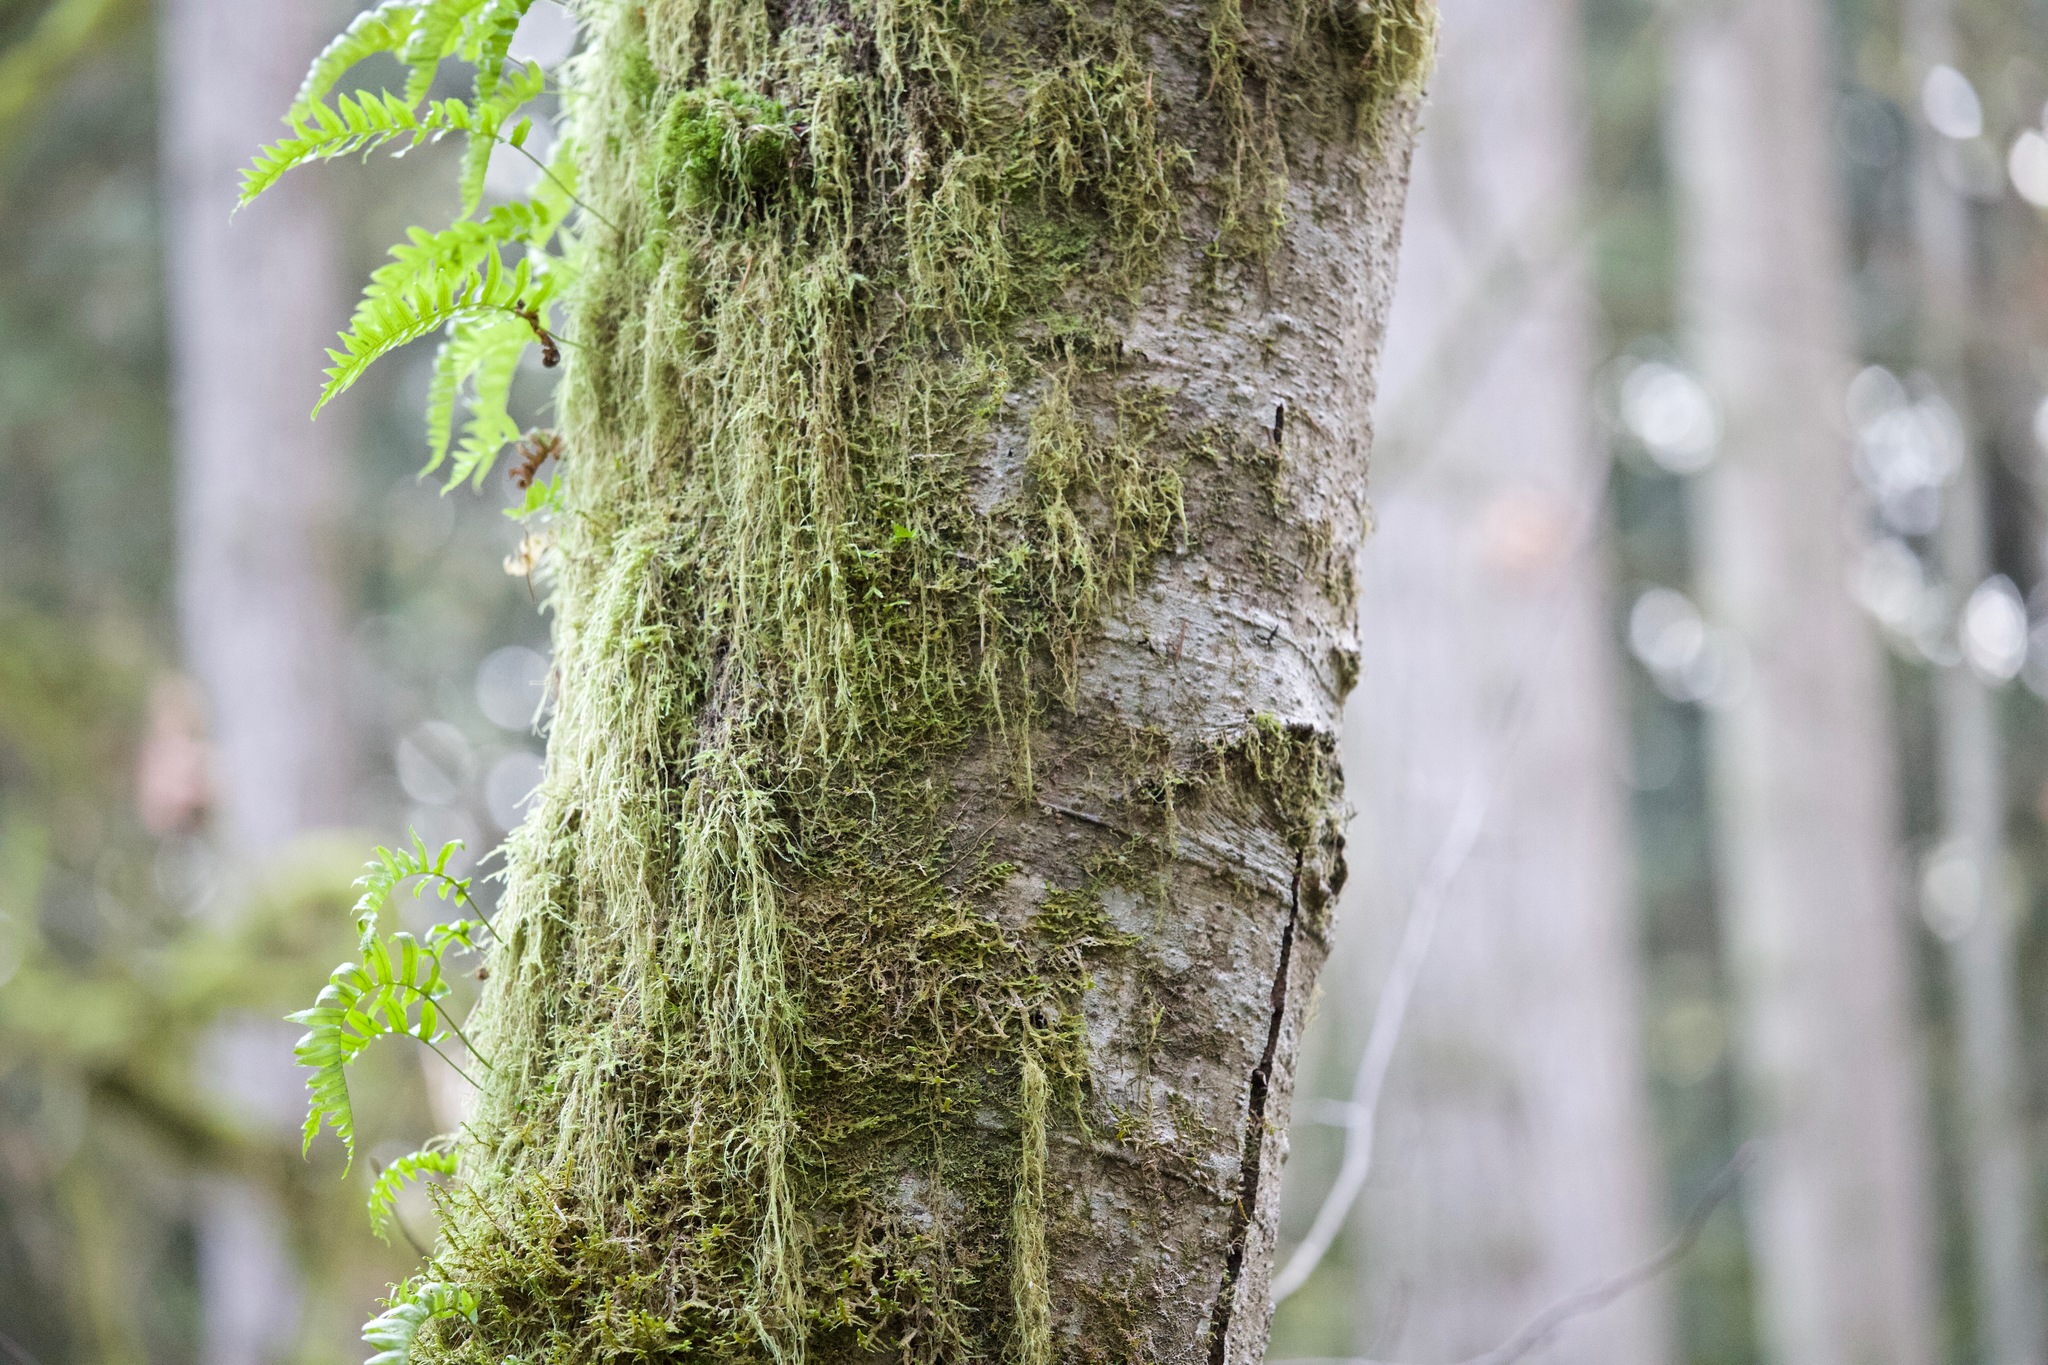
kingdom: Plantae
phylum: Tracheophyta
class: Polypodiopsida
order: Polypodiales
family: Polypodiaceae
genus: Polypodium
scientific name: Polypodium glycyrrhiza
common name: Licorice fern
